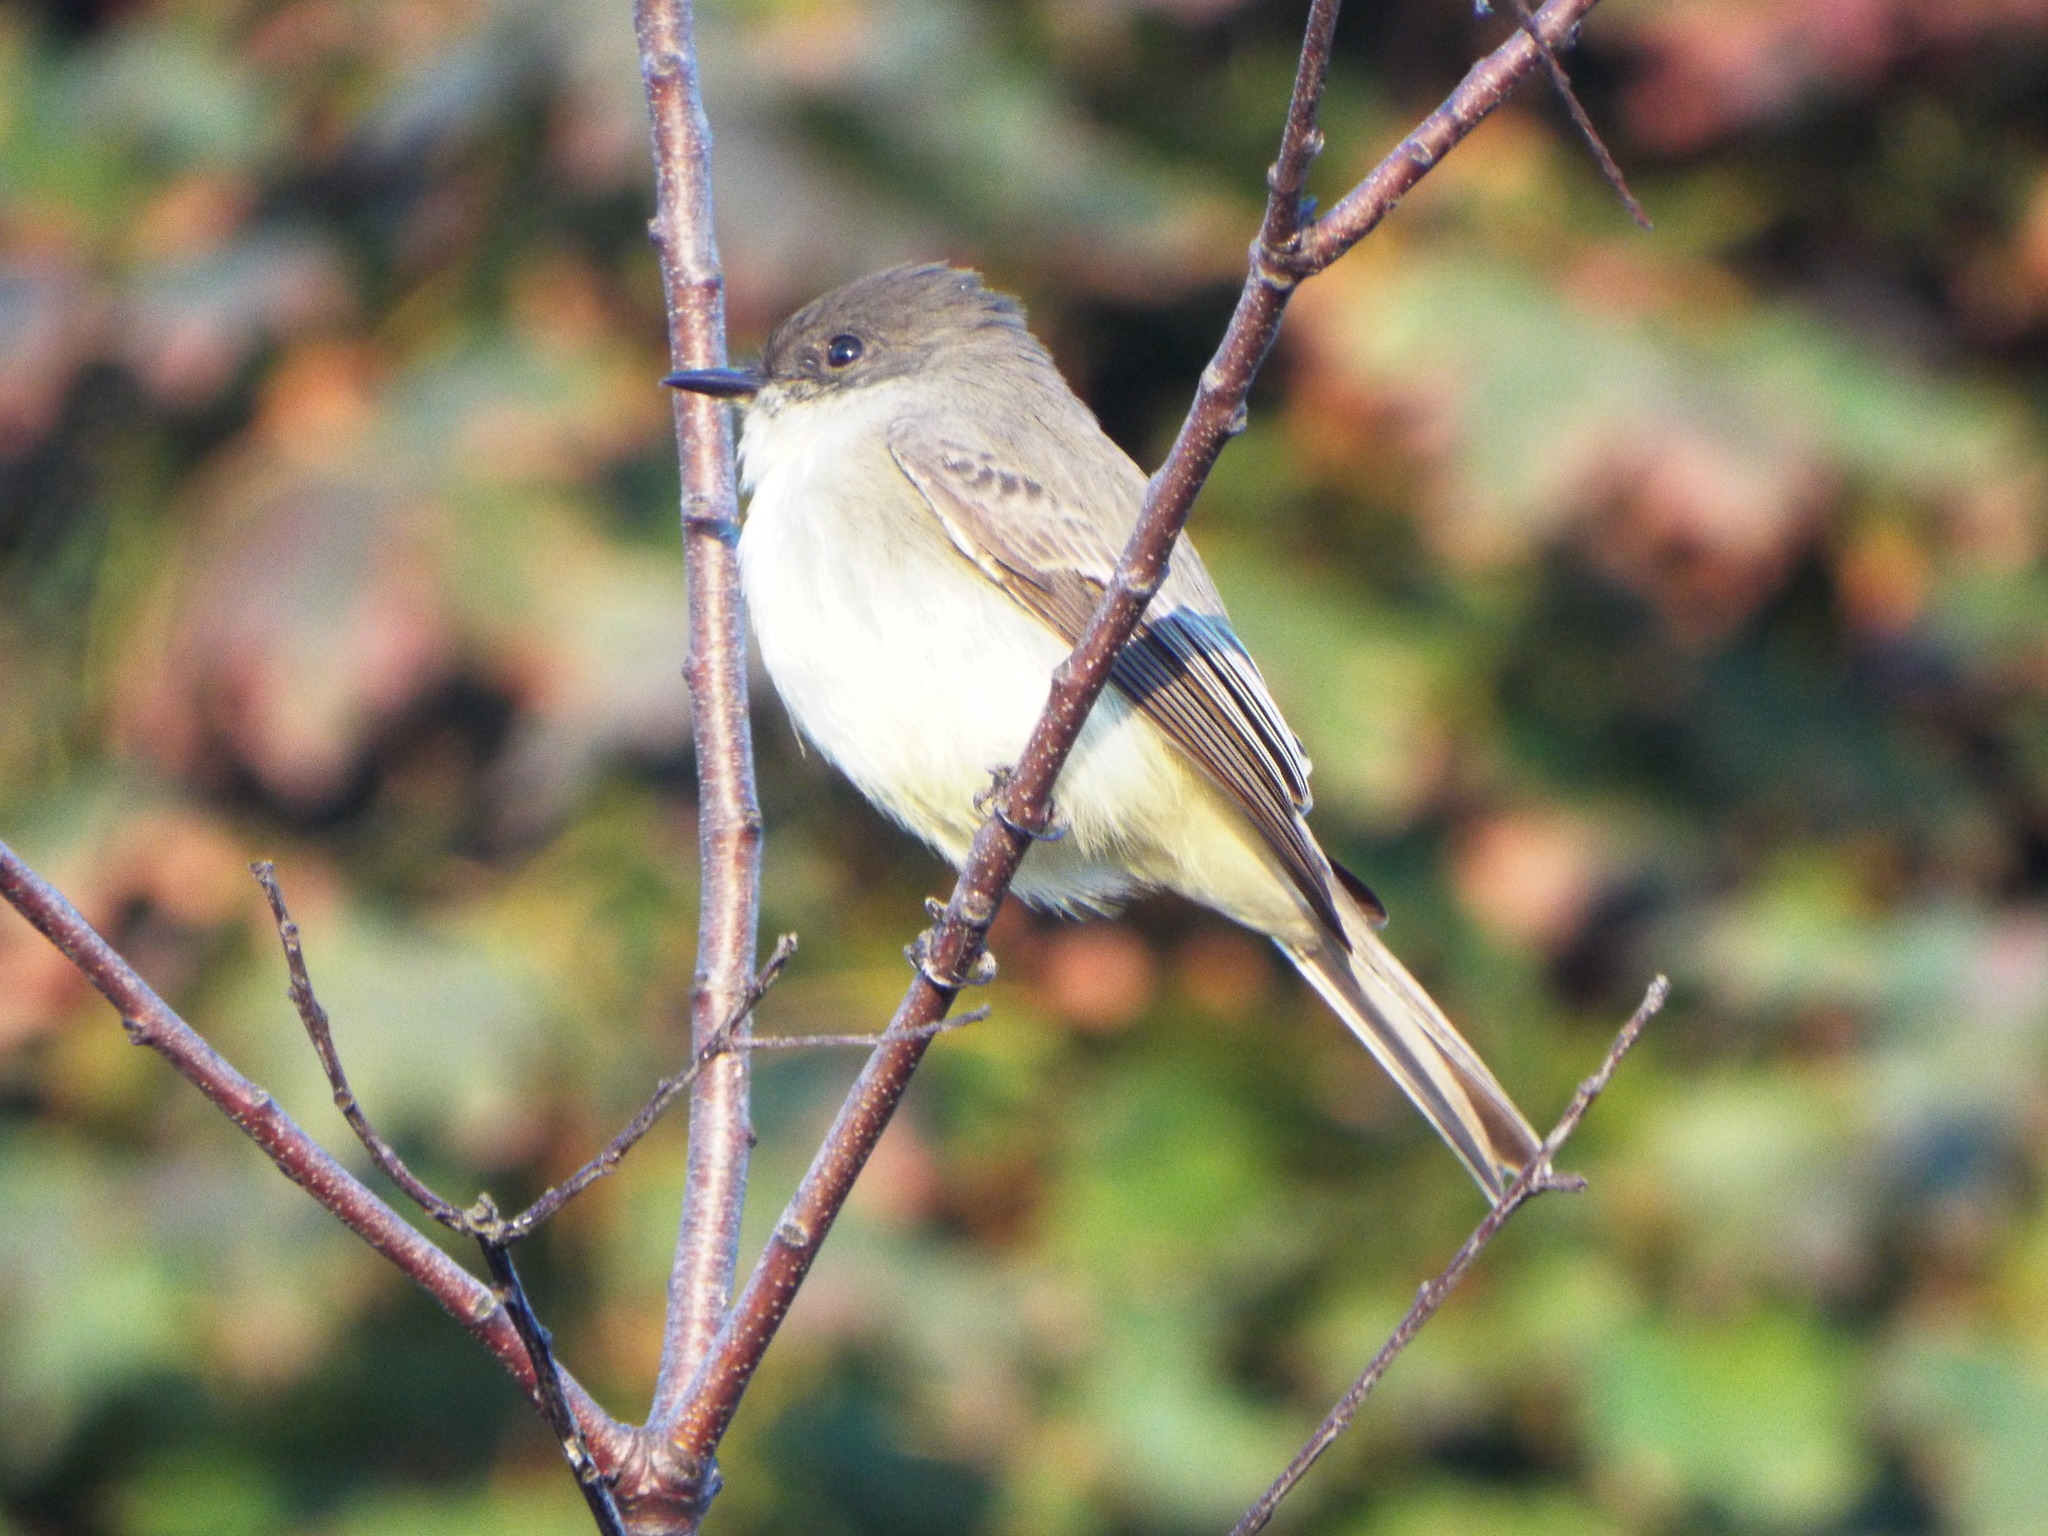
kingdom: Animalia
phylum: Chordata
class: Aves
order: Passeriformes
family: Tyrannidae
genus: Sayornis
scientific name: Sayornis phoebe
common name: Eastern phoebe
